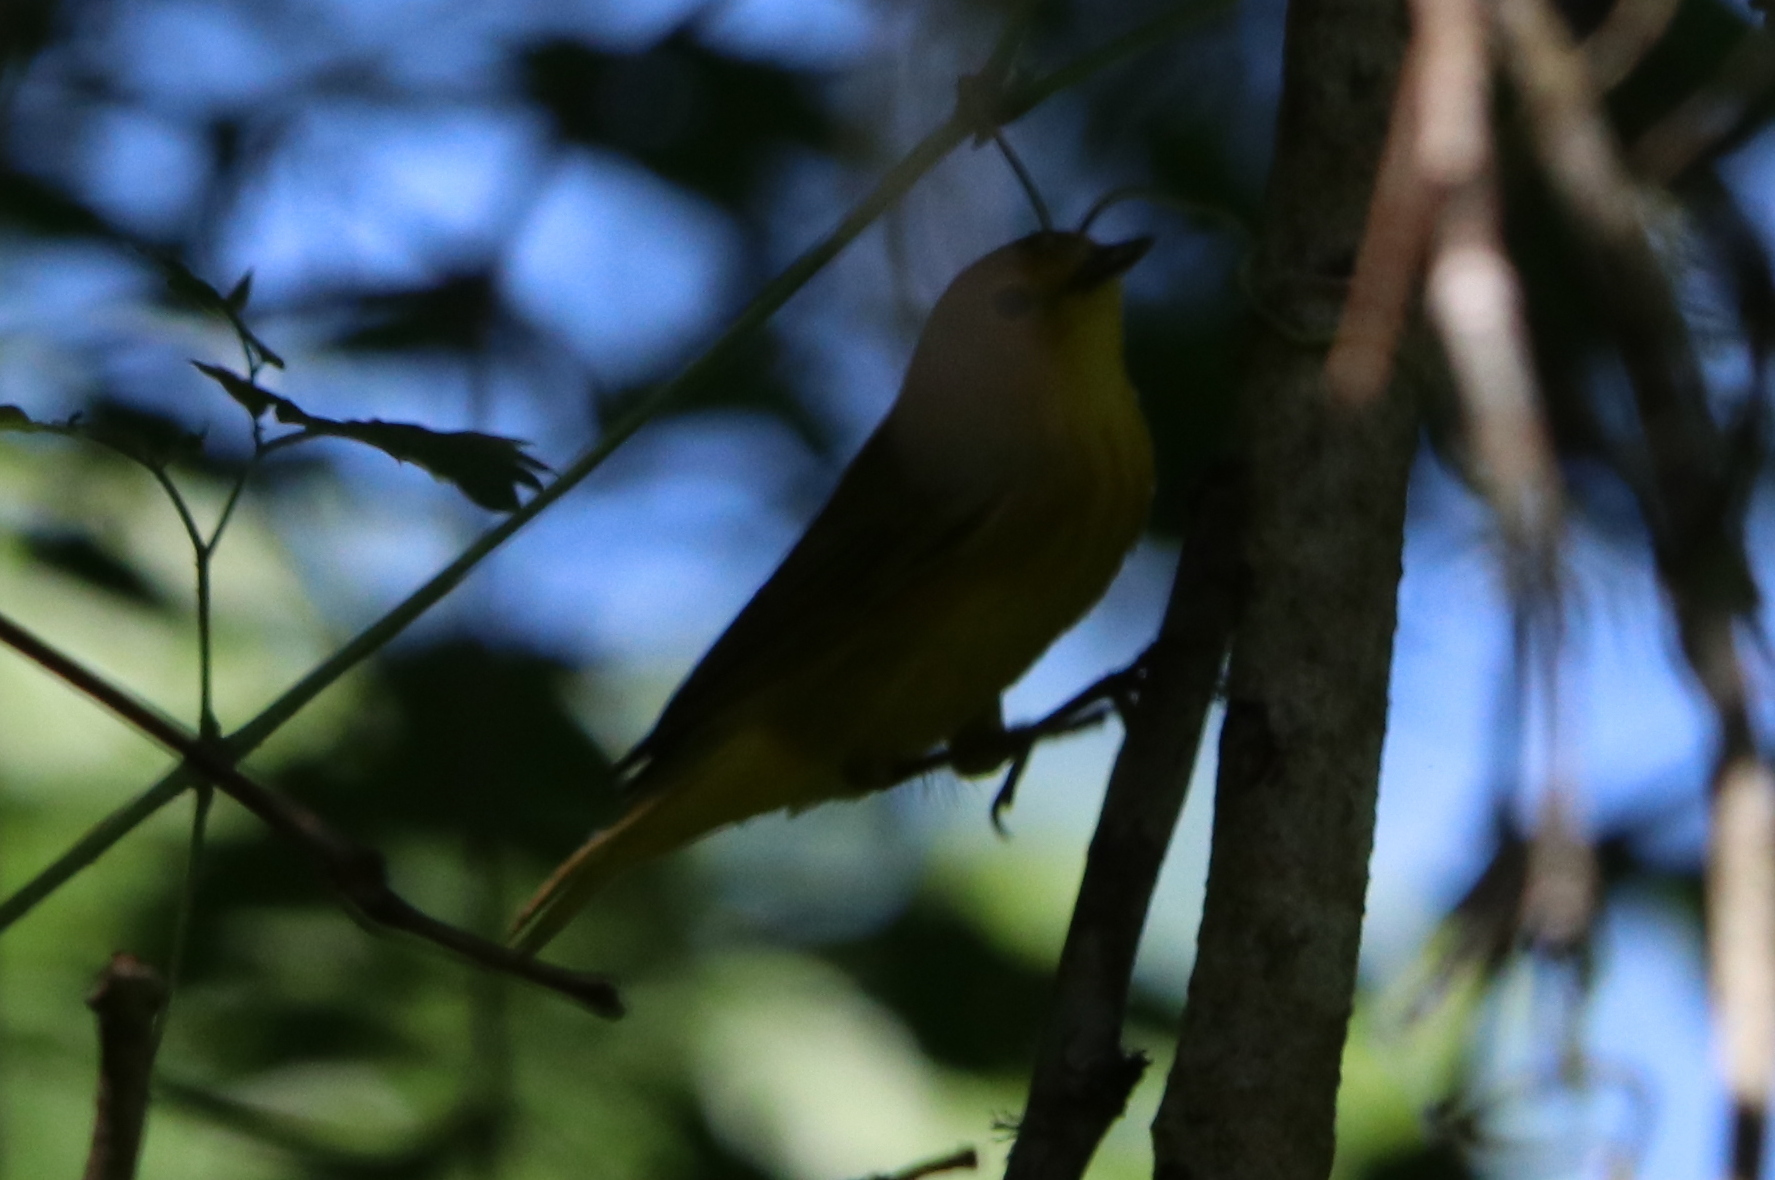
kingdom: Animalia
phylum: Chordata
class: Aves
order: Passeriformes
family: Parulidae
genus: Setophaga
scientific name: Setophaga petechia
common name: Yellow warbler
